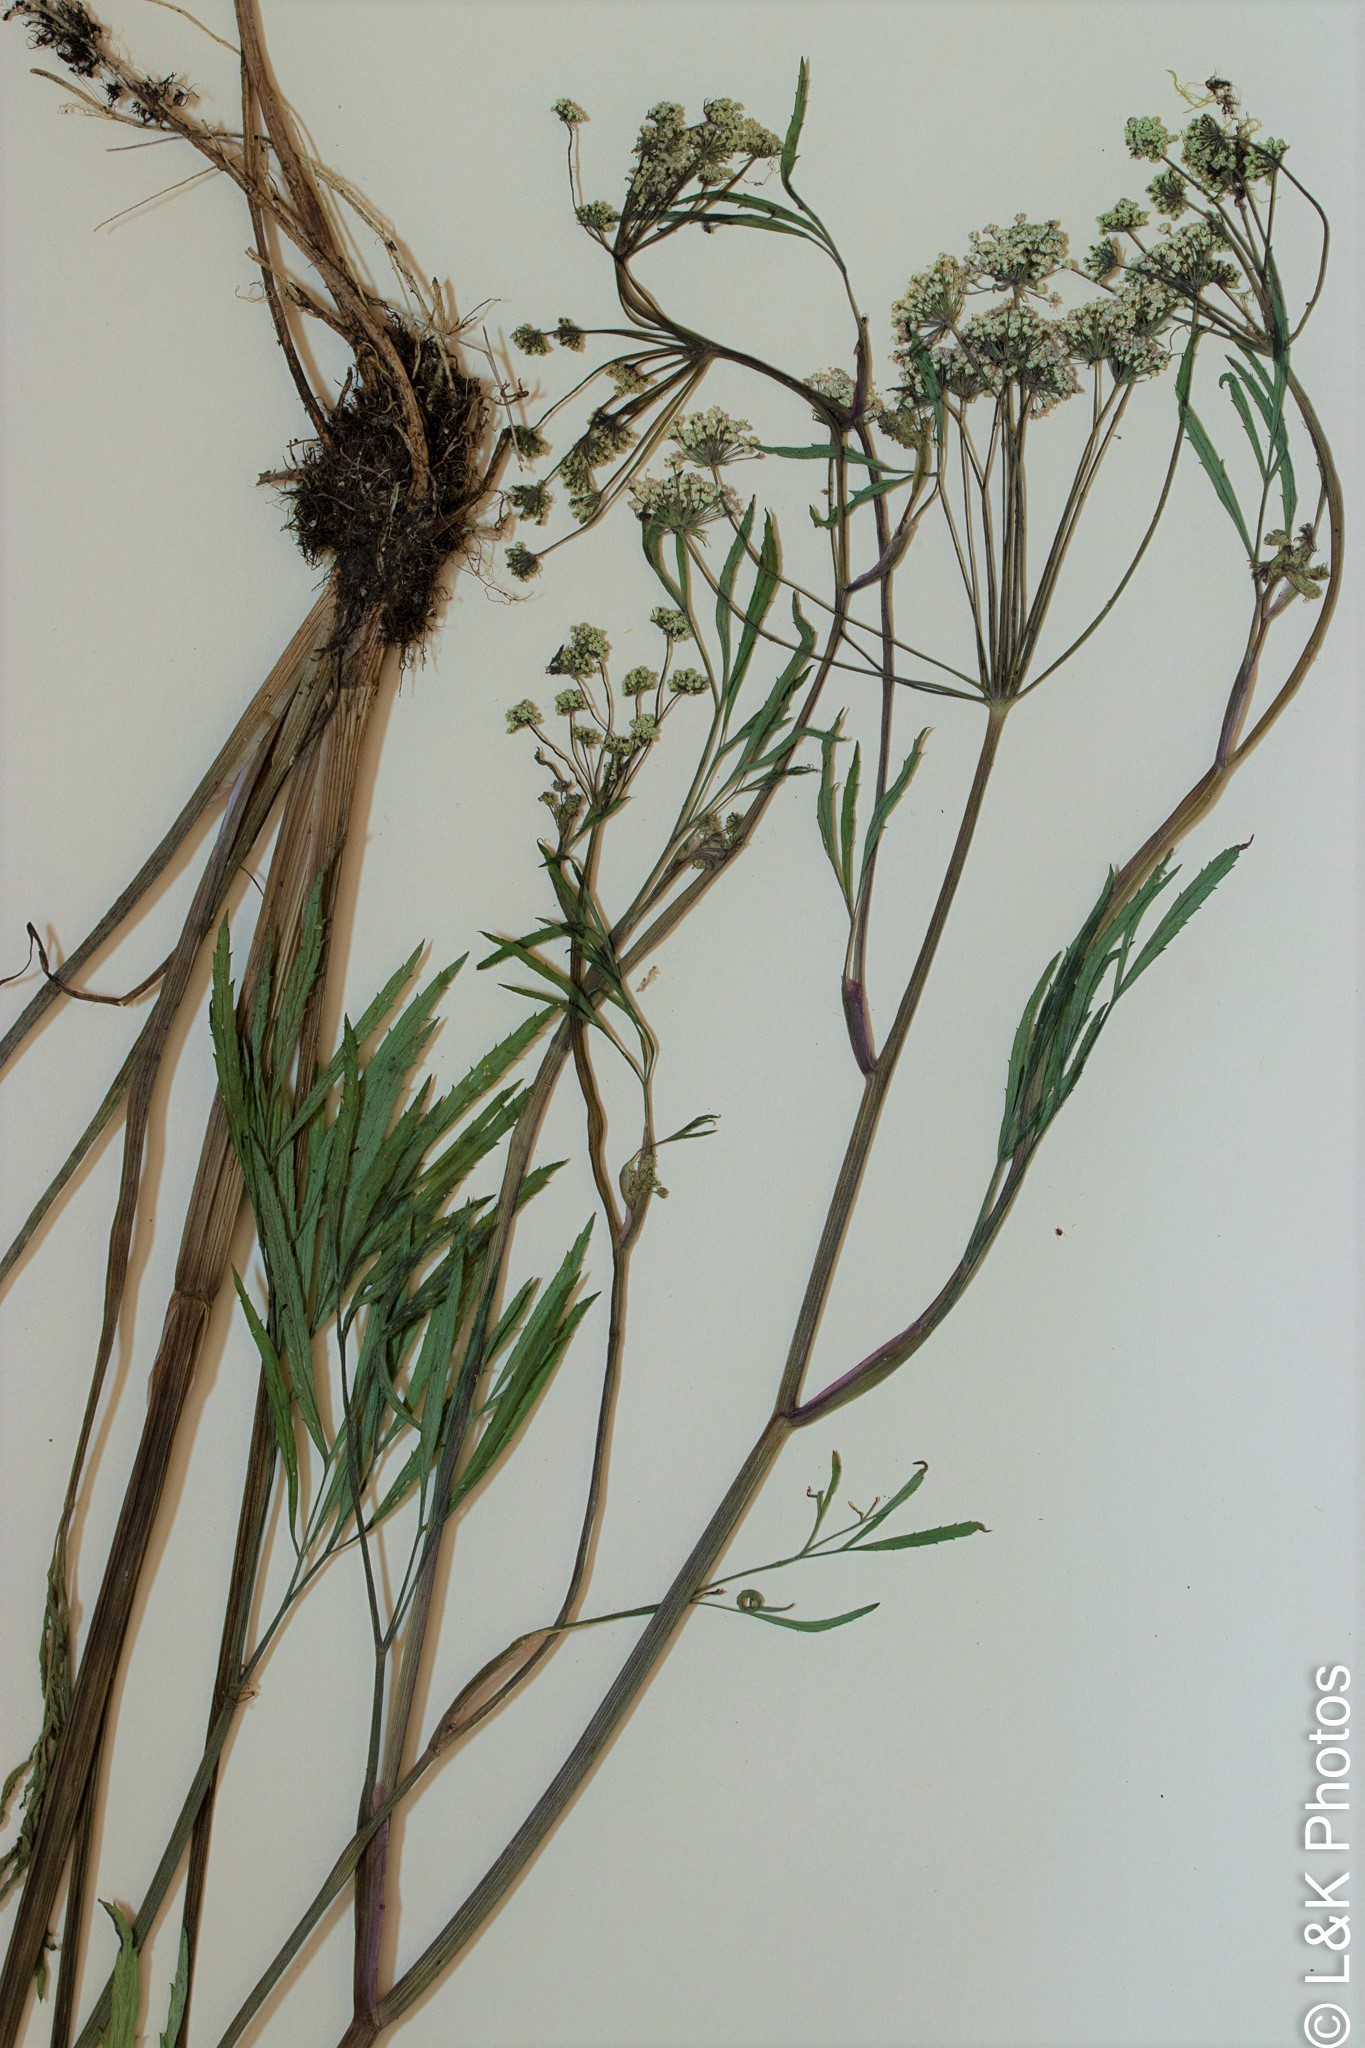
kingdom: Plantae
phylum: Tracheophyta
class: Magnoliopsida
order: Apiales
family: Apiaceae
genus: Cicuta
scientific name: Cicuta virosa
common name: Cowbane
